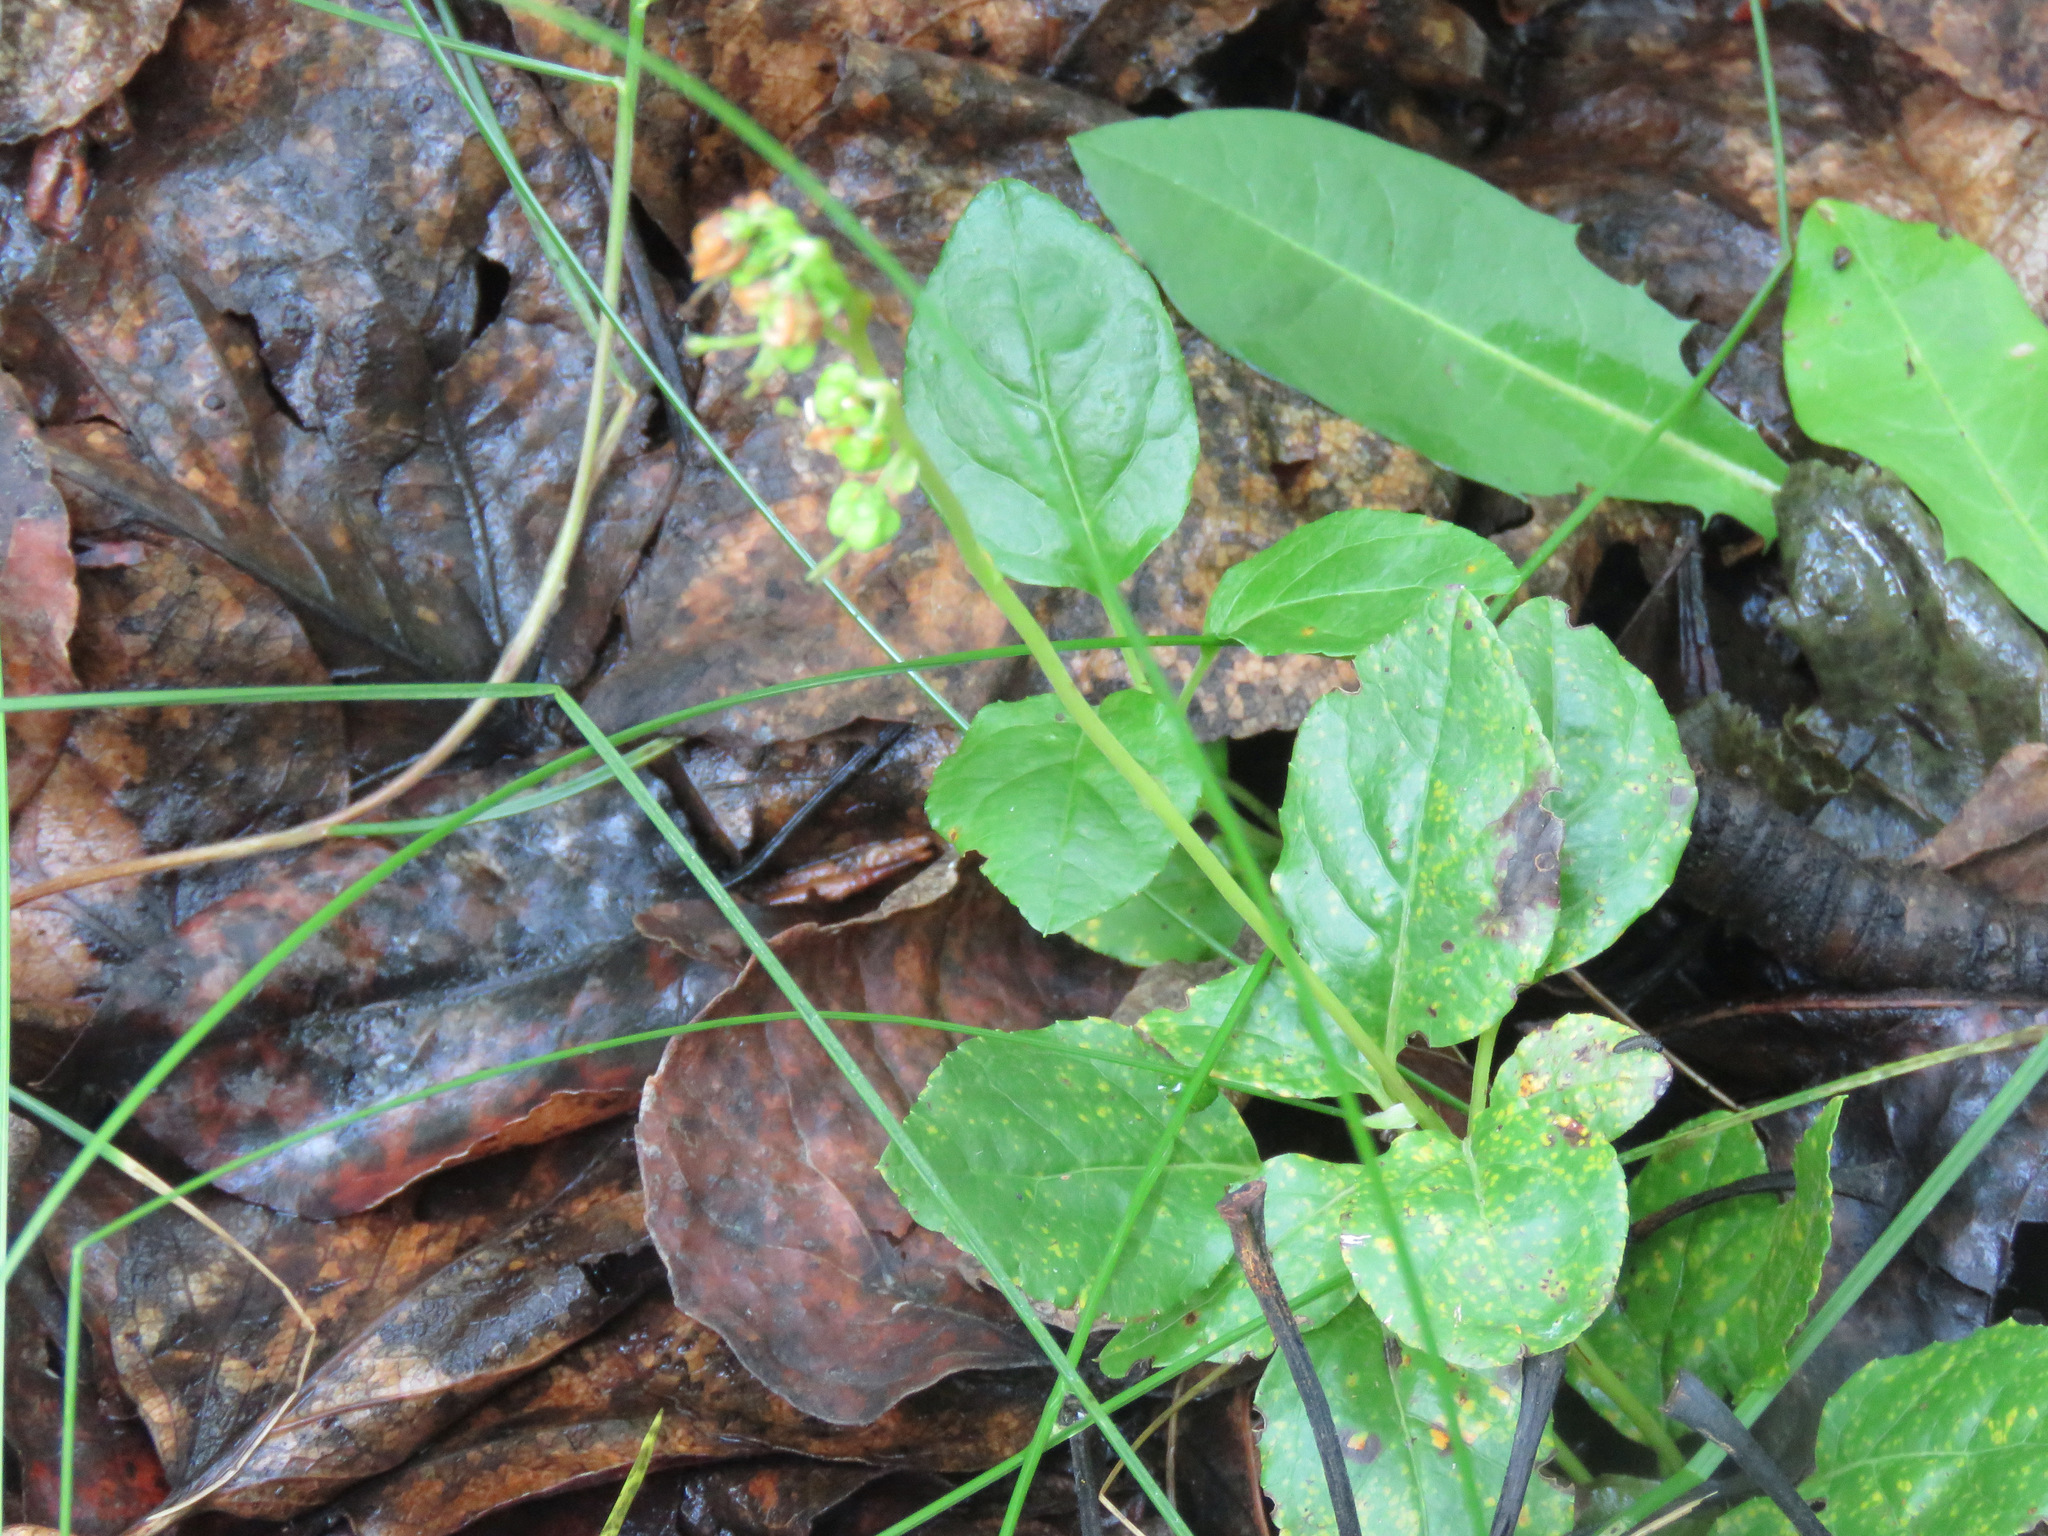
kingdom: Plantae
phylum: Tracheophyta
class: Magnoliopsida
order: Ericales
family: Ericaceae
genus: Orthilia
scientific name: Orthilia secunda
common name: One-sided orthilia
